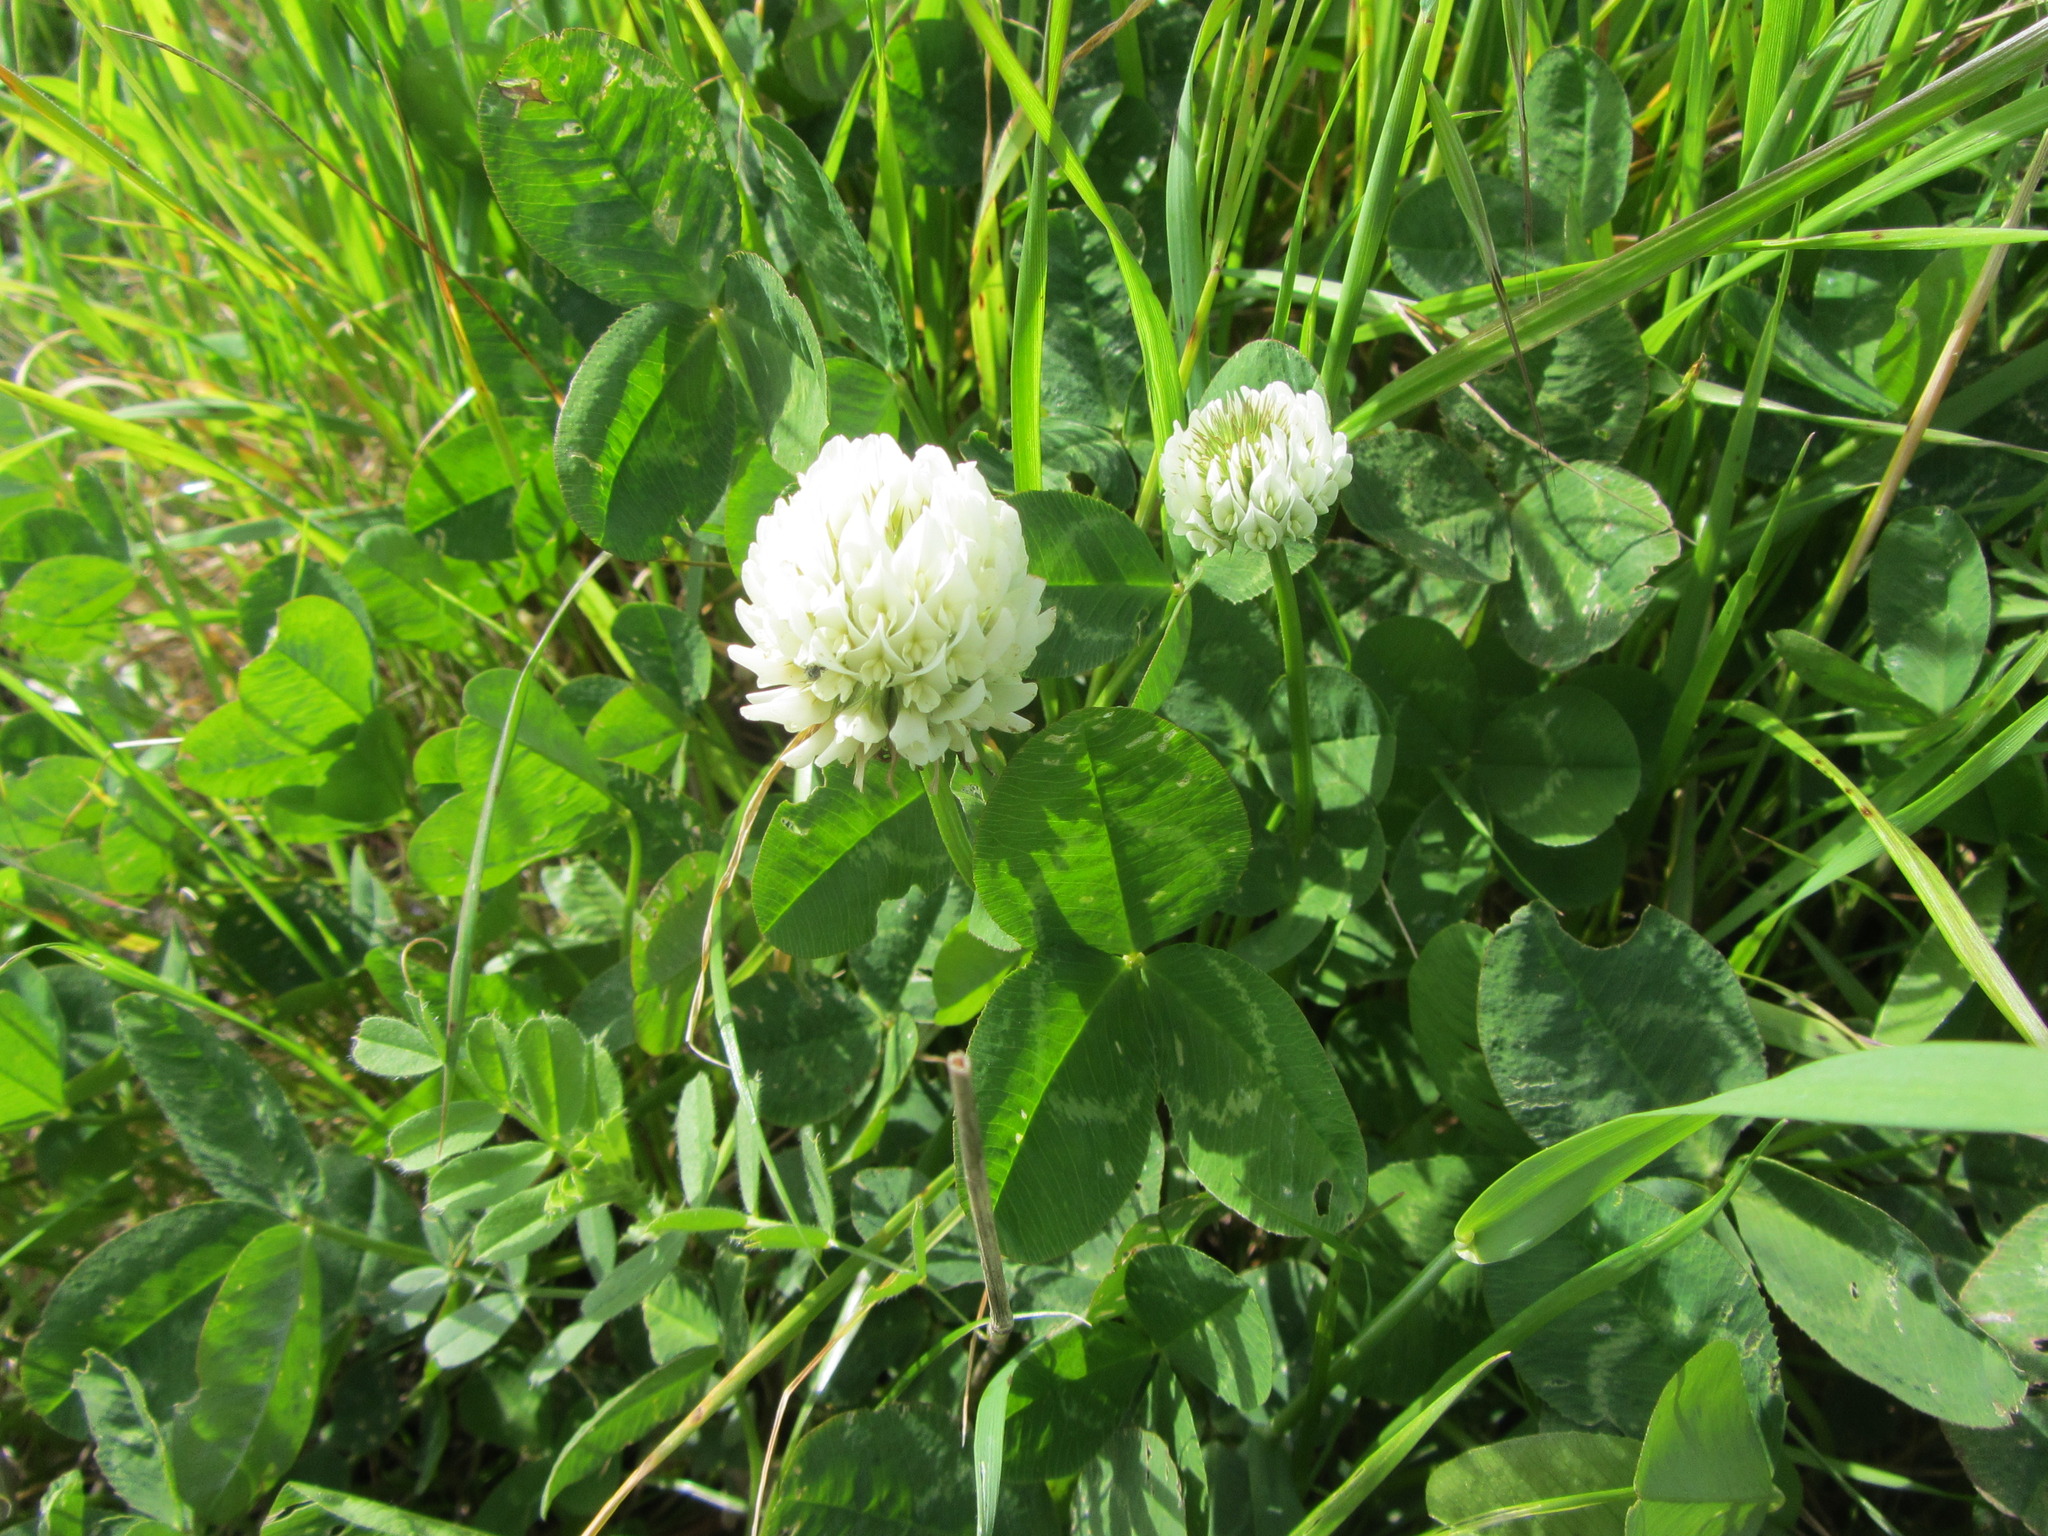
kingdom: Plantae
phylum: Tracheophyta
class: Magnoliopsida
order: Fabales
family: Fabaceae
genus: Trifolium
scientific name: Trifolium repens
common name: White clover
